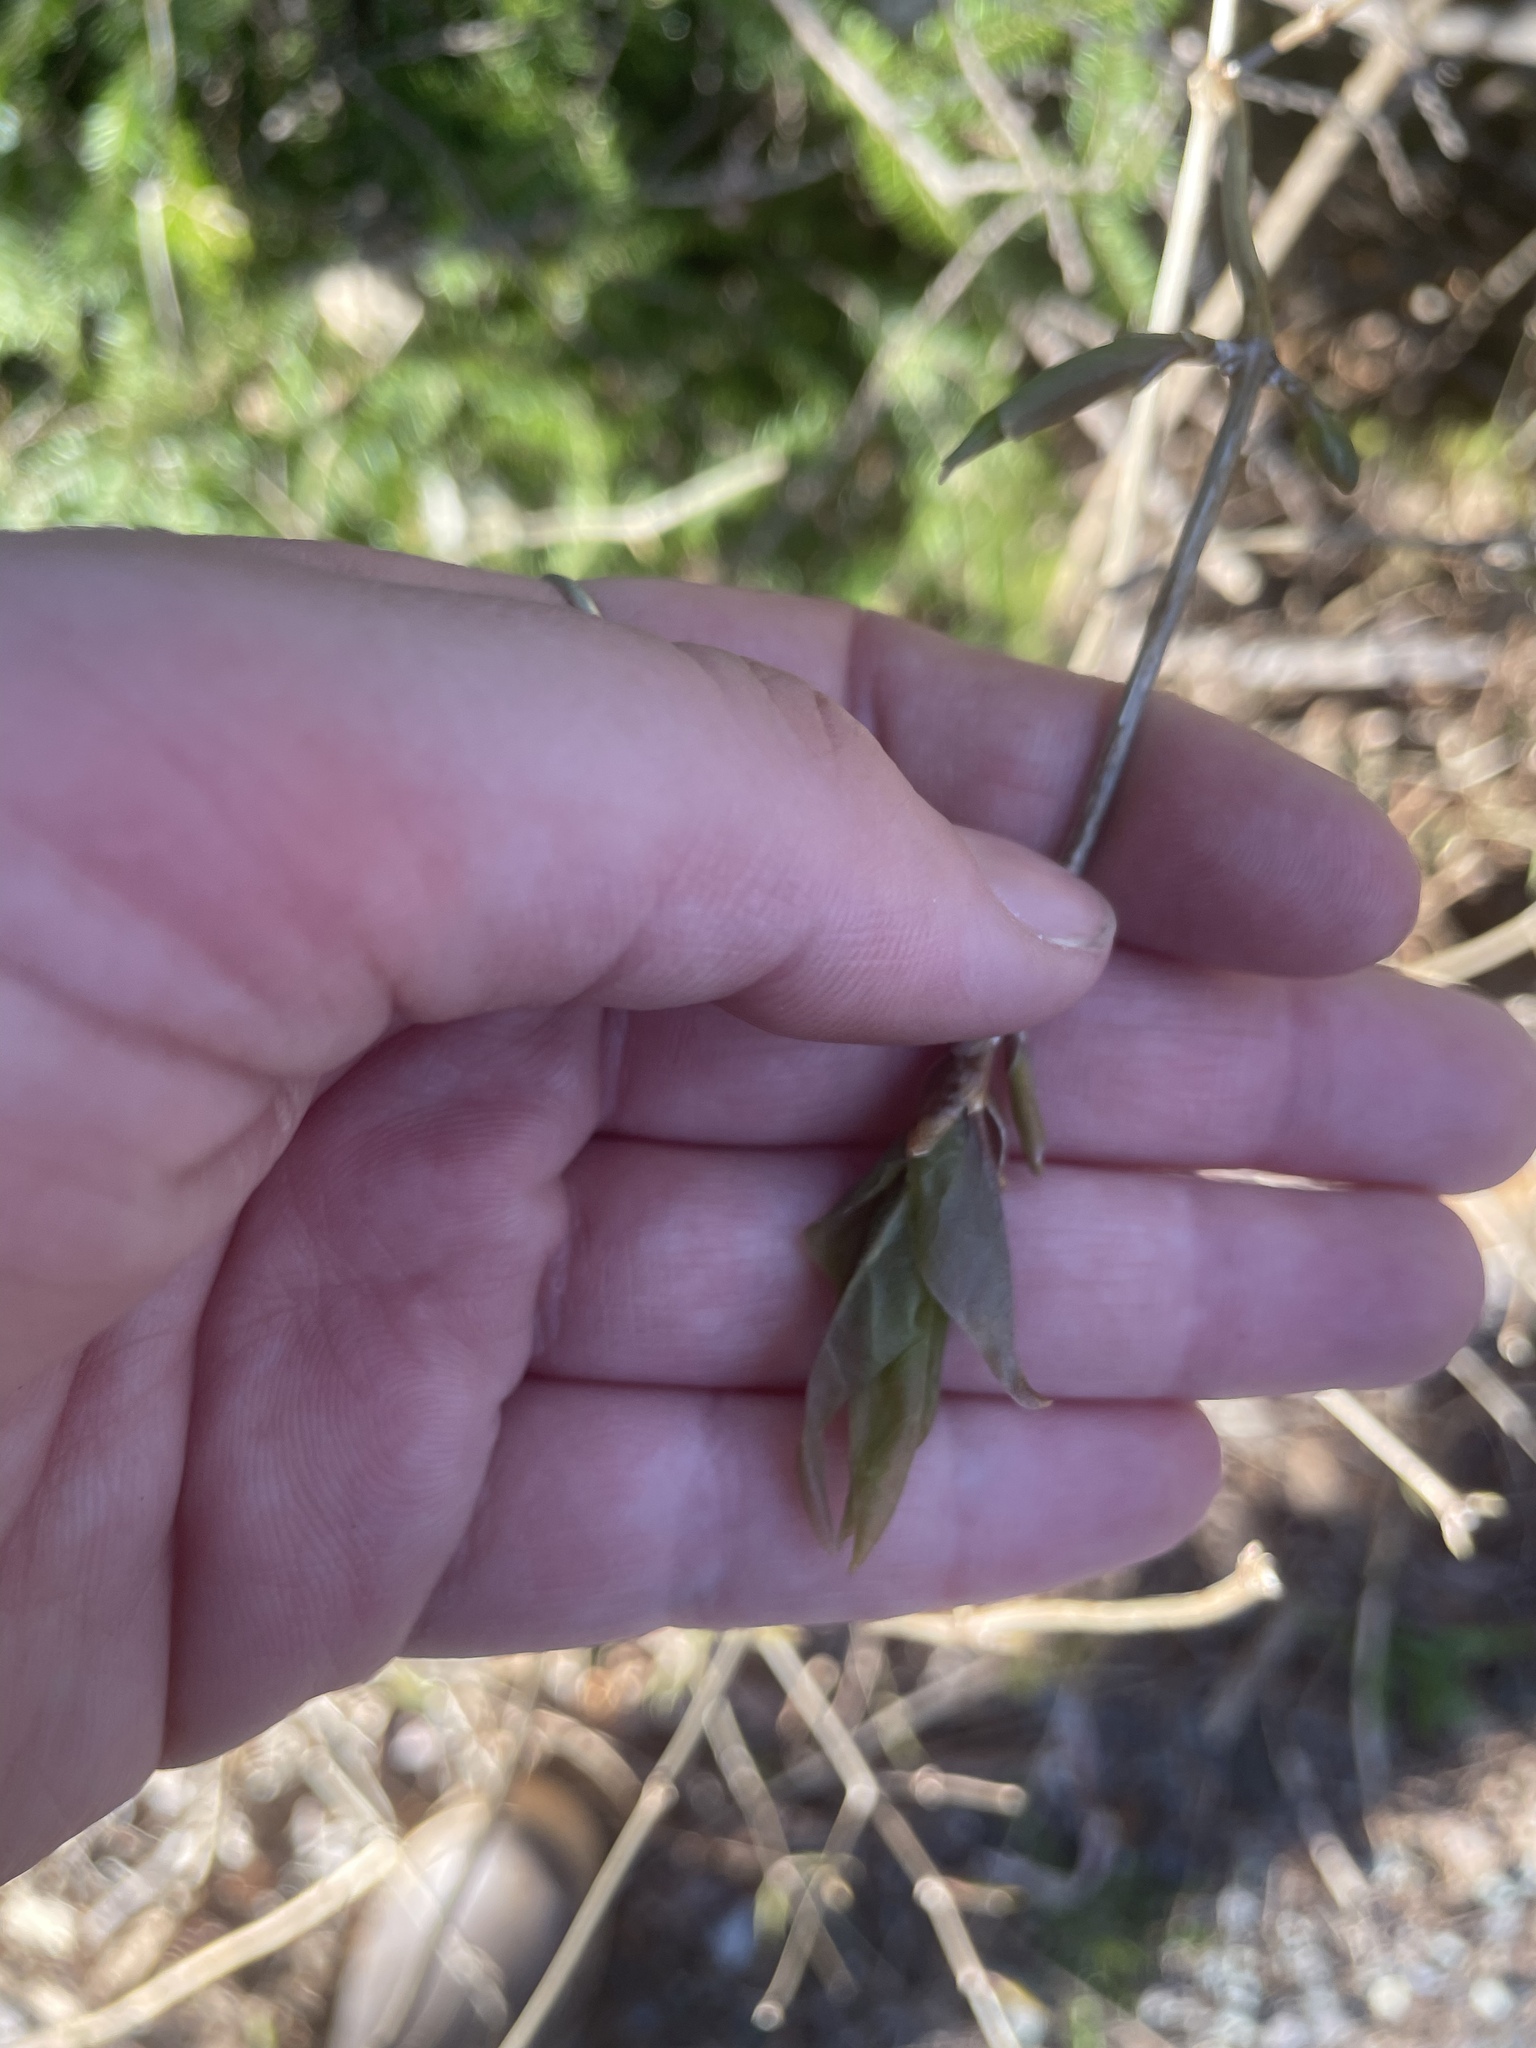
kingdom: Plantae
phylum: Tracheophyta
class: Magnoliopsida
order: Dipsacales
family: Caprifoliaceae
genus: Lonicera
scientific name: Lonicera canadensis
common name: American fly-honeysuckle
